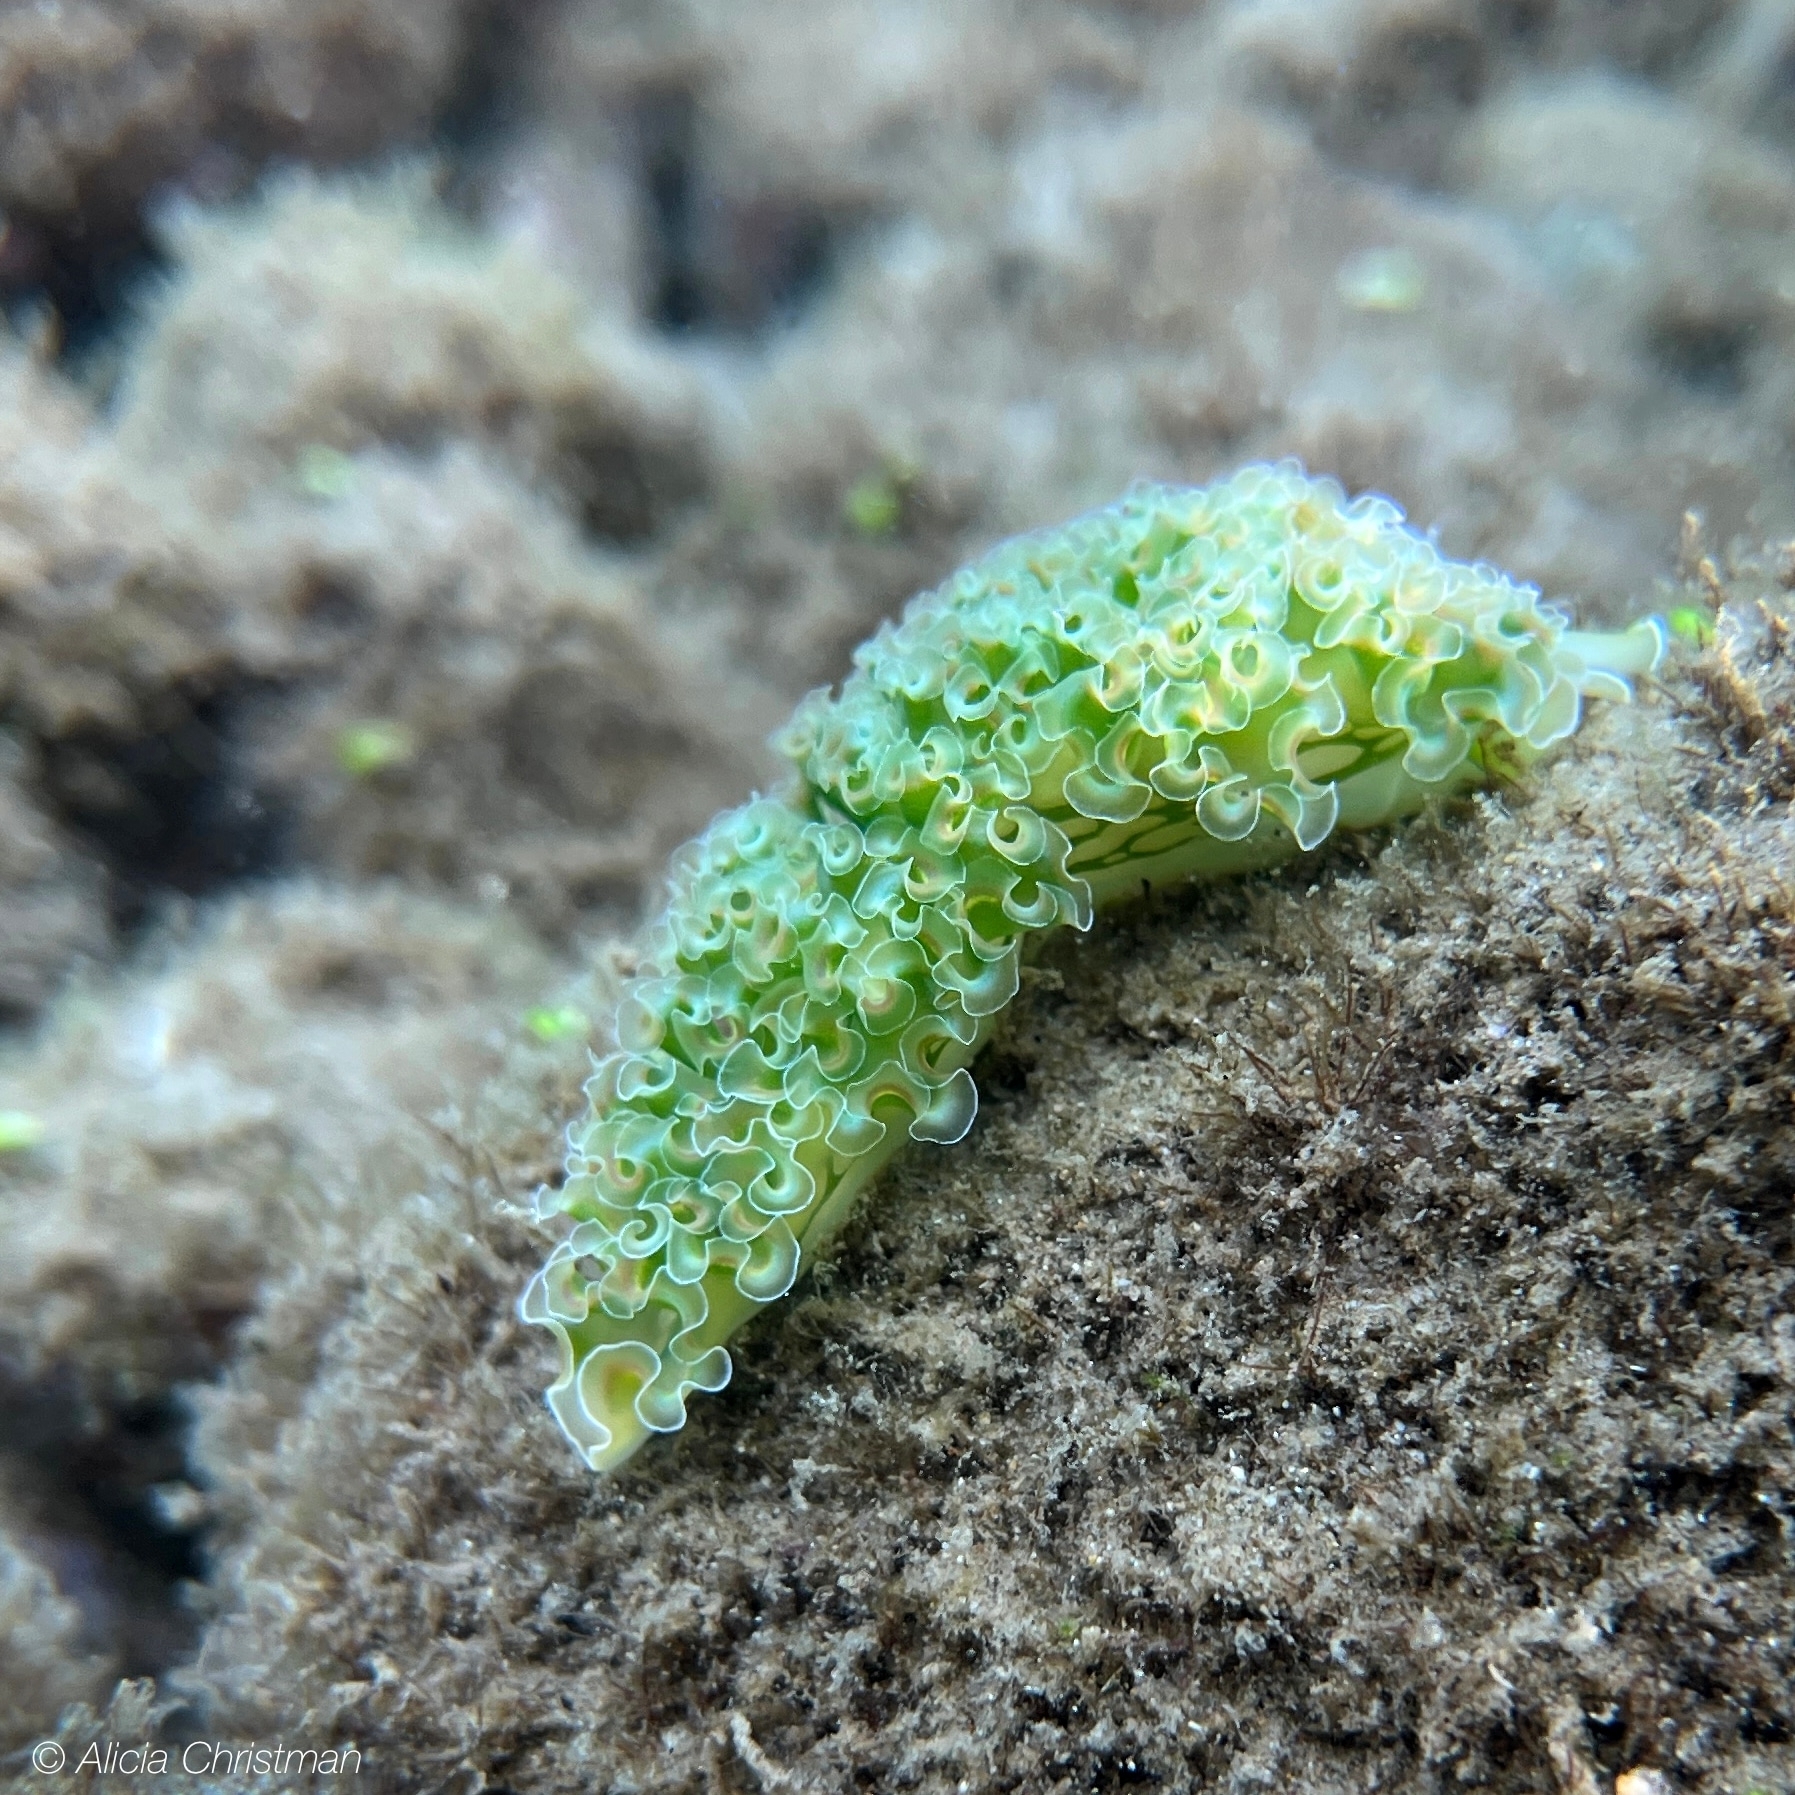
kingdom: Animalia
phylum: Mollusca
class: Gastropoda
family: Plakobranchidae
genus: Elysia
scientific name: Elysia crispata
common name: Lettuce slug
